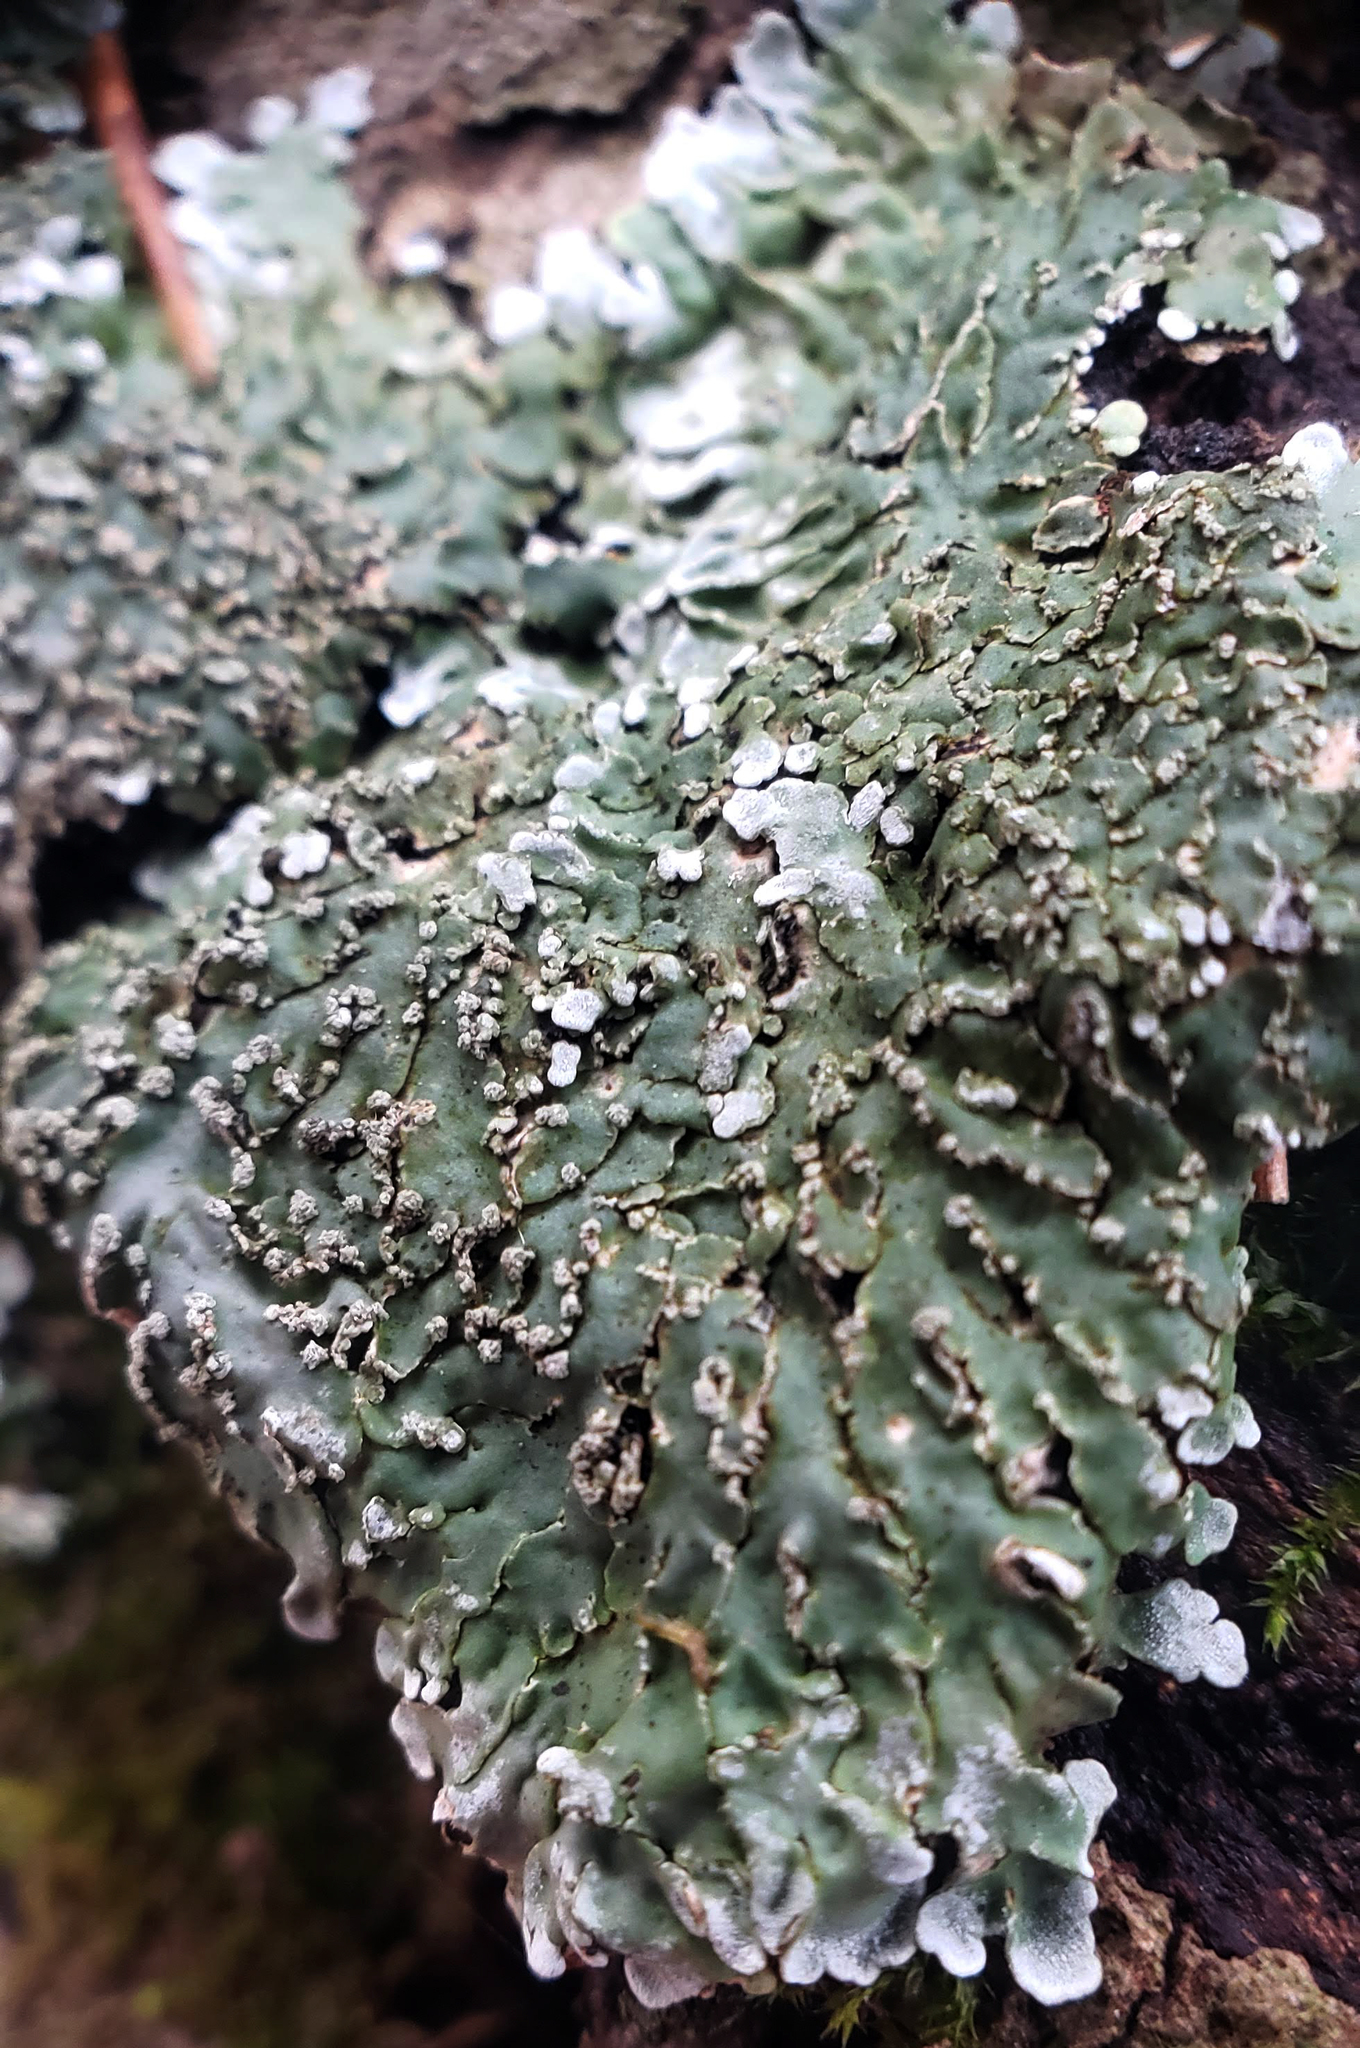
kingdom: Fungi
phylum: Ascomycota
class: Lecanoromycetes
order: Caliciales
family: Caliciaceae
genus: Pyxine
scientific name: Pyxine sorediata
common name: Mustard lichen
